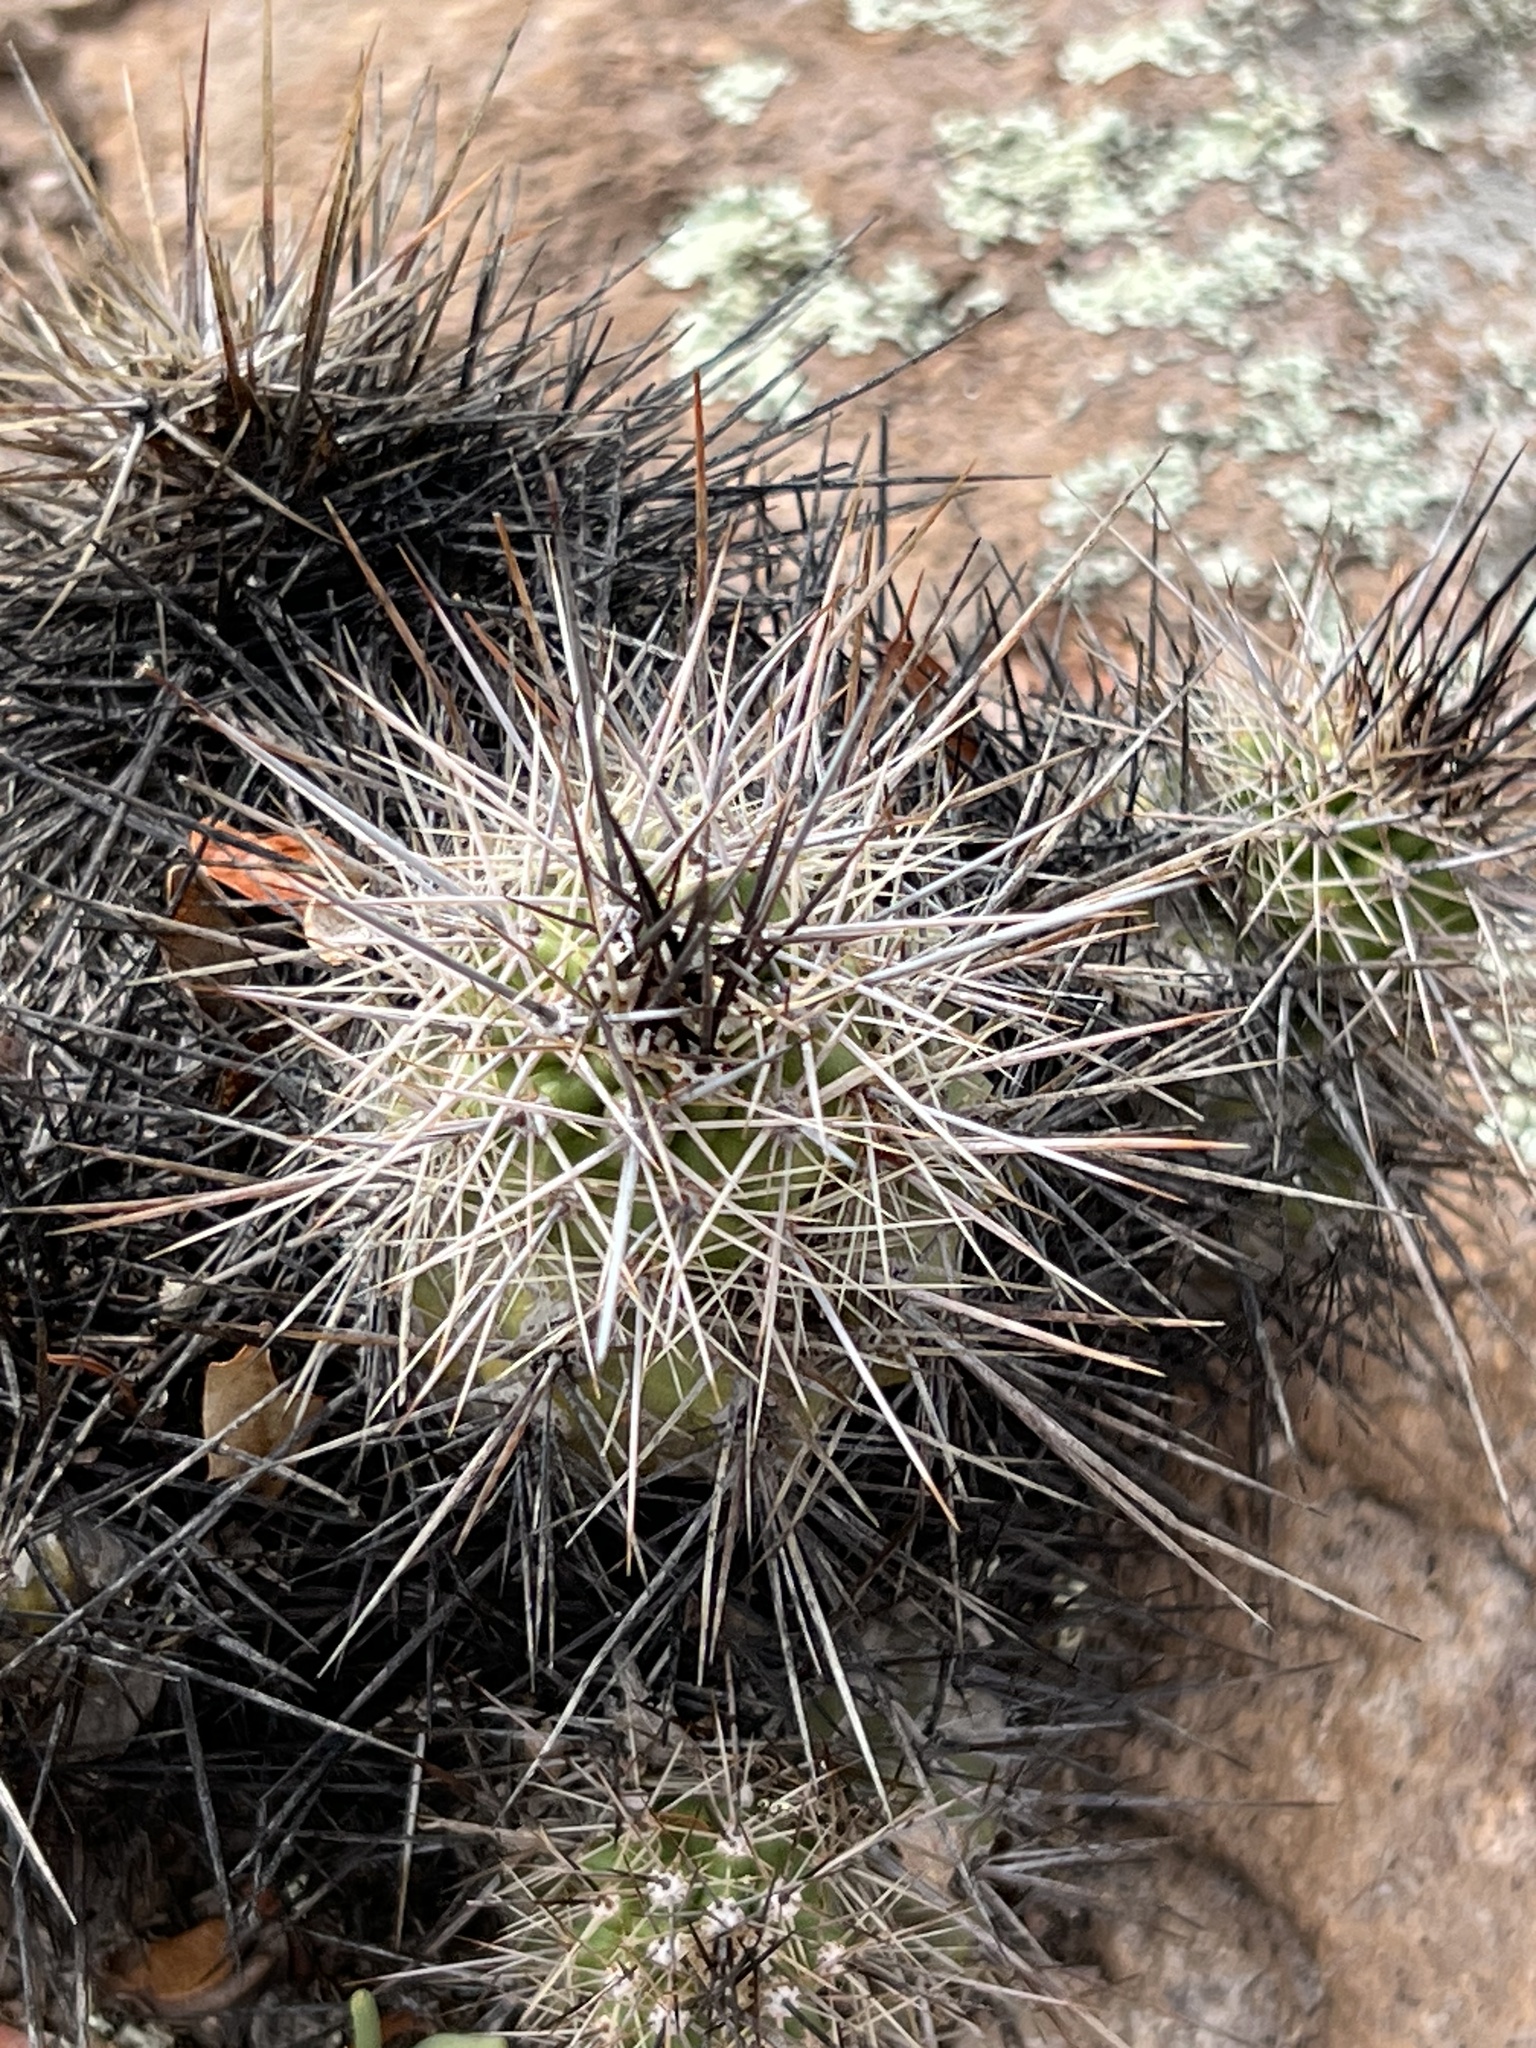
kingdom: Plantae
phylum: Tracheophyta
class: Magnoliopsida
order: Caryophyllales
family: Cactaceae
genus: Echinocereus
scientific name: Echinocereus arizonicus
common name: Arizona hedgehog cactus
